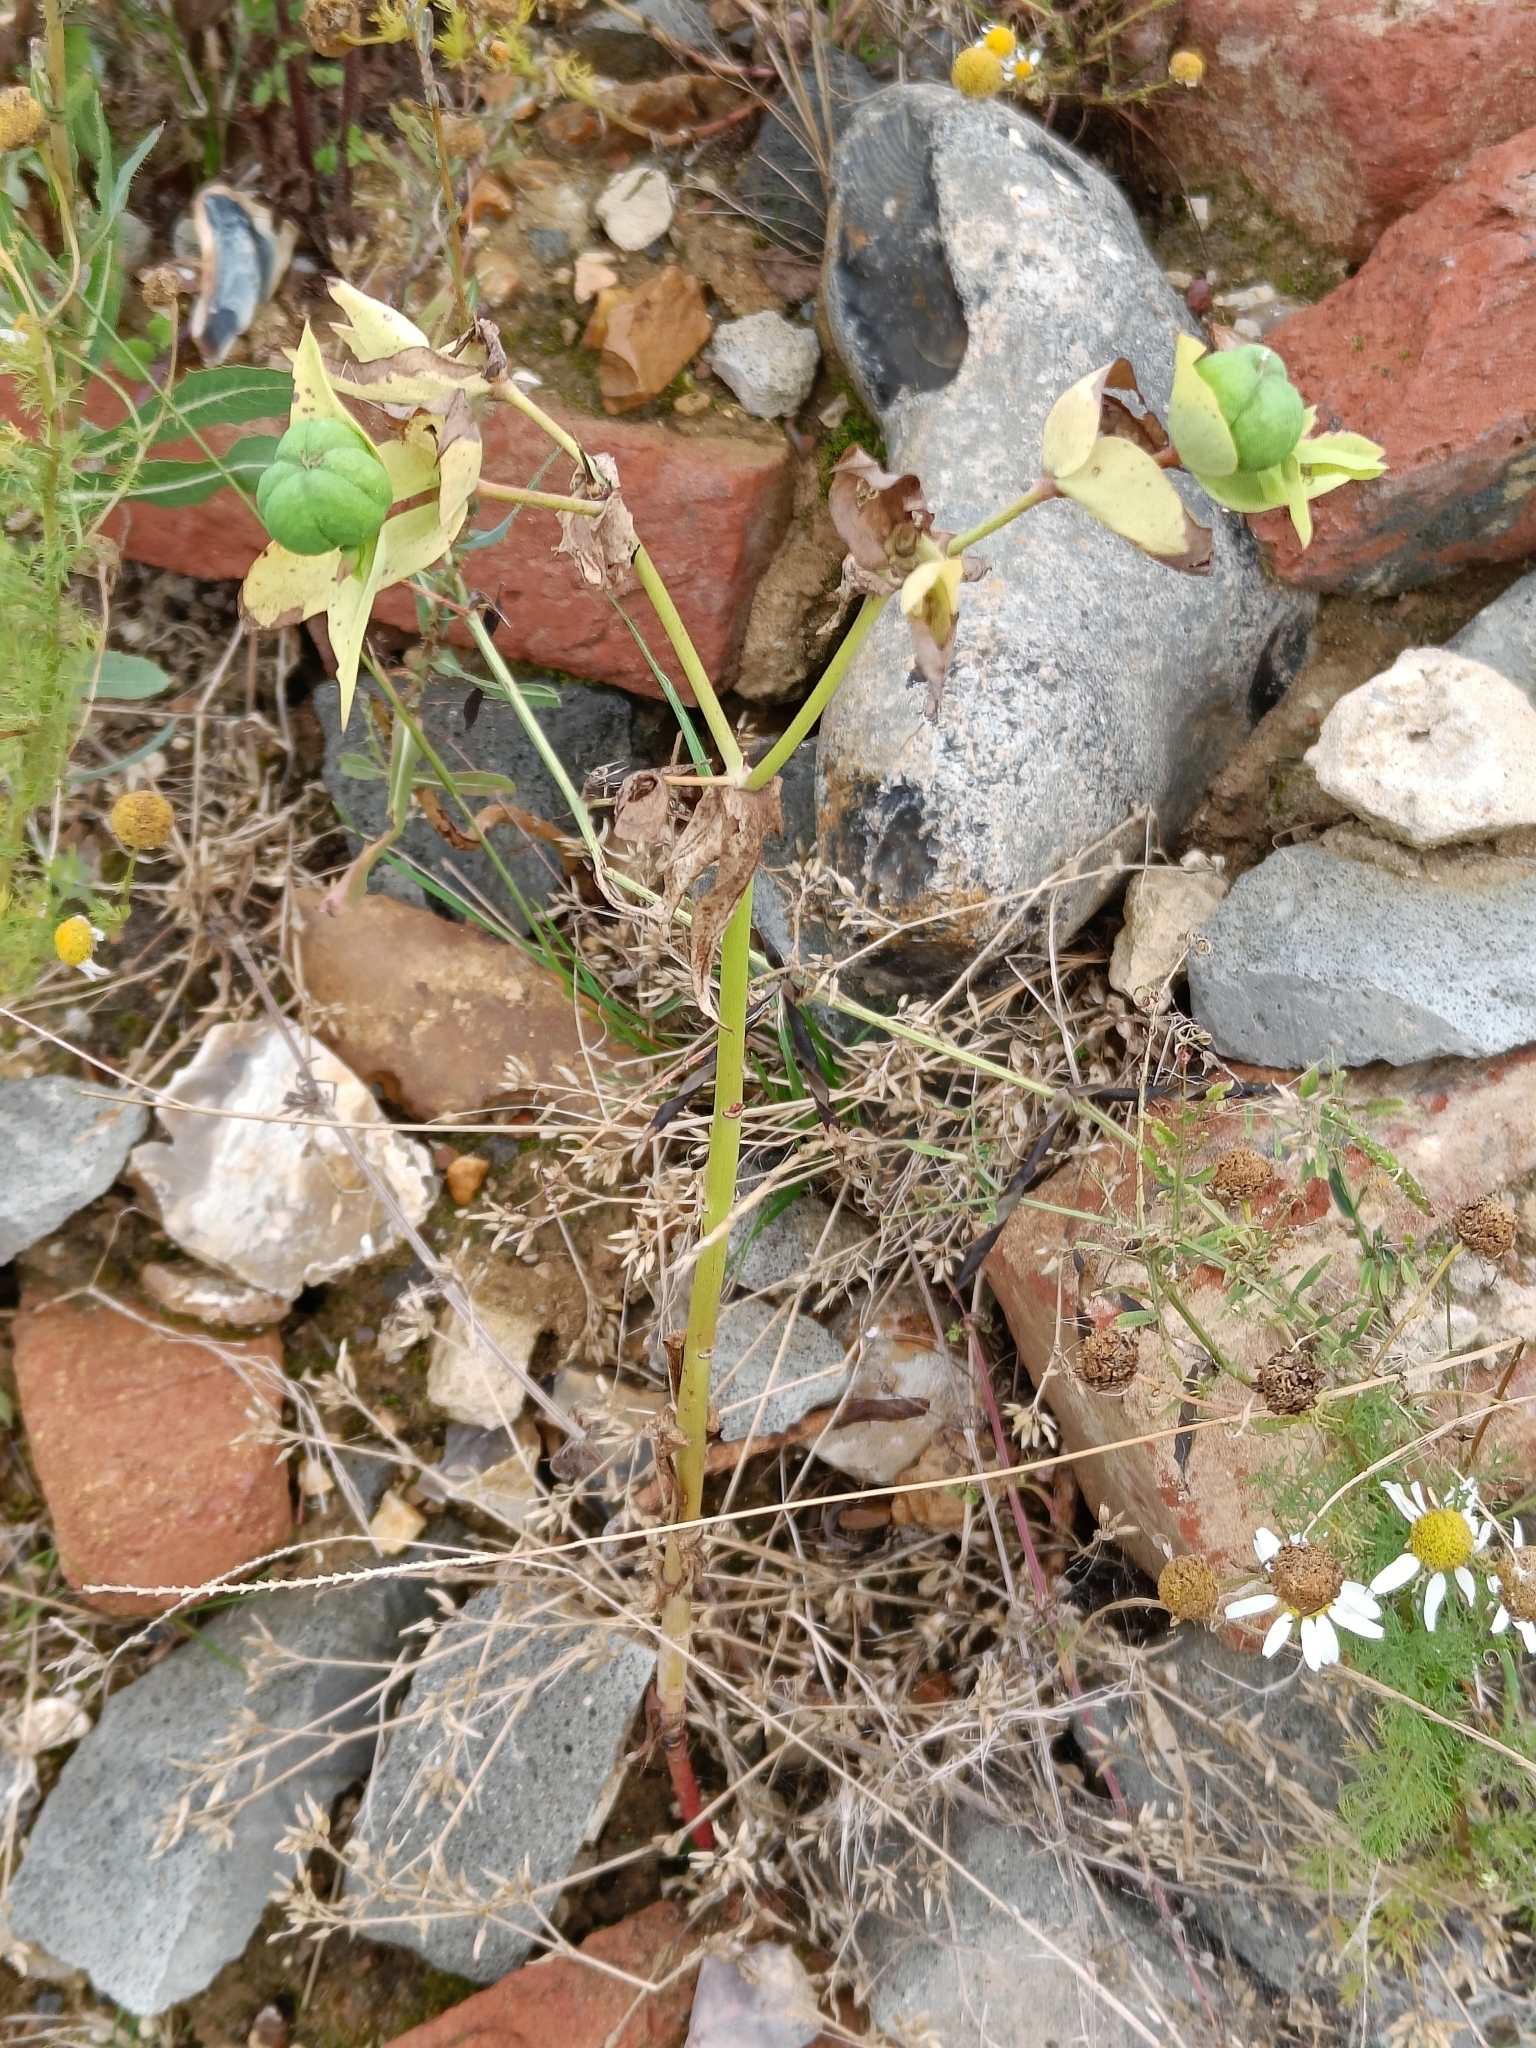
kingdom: Plantae
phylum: Tracheophyta
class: Magnoliopsida
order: Malpighiales
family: Euphorbiaceae
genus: Euphorbia
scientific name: Euphorbia lathyris
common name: Caper spurge
